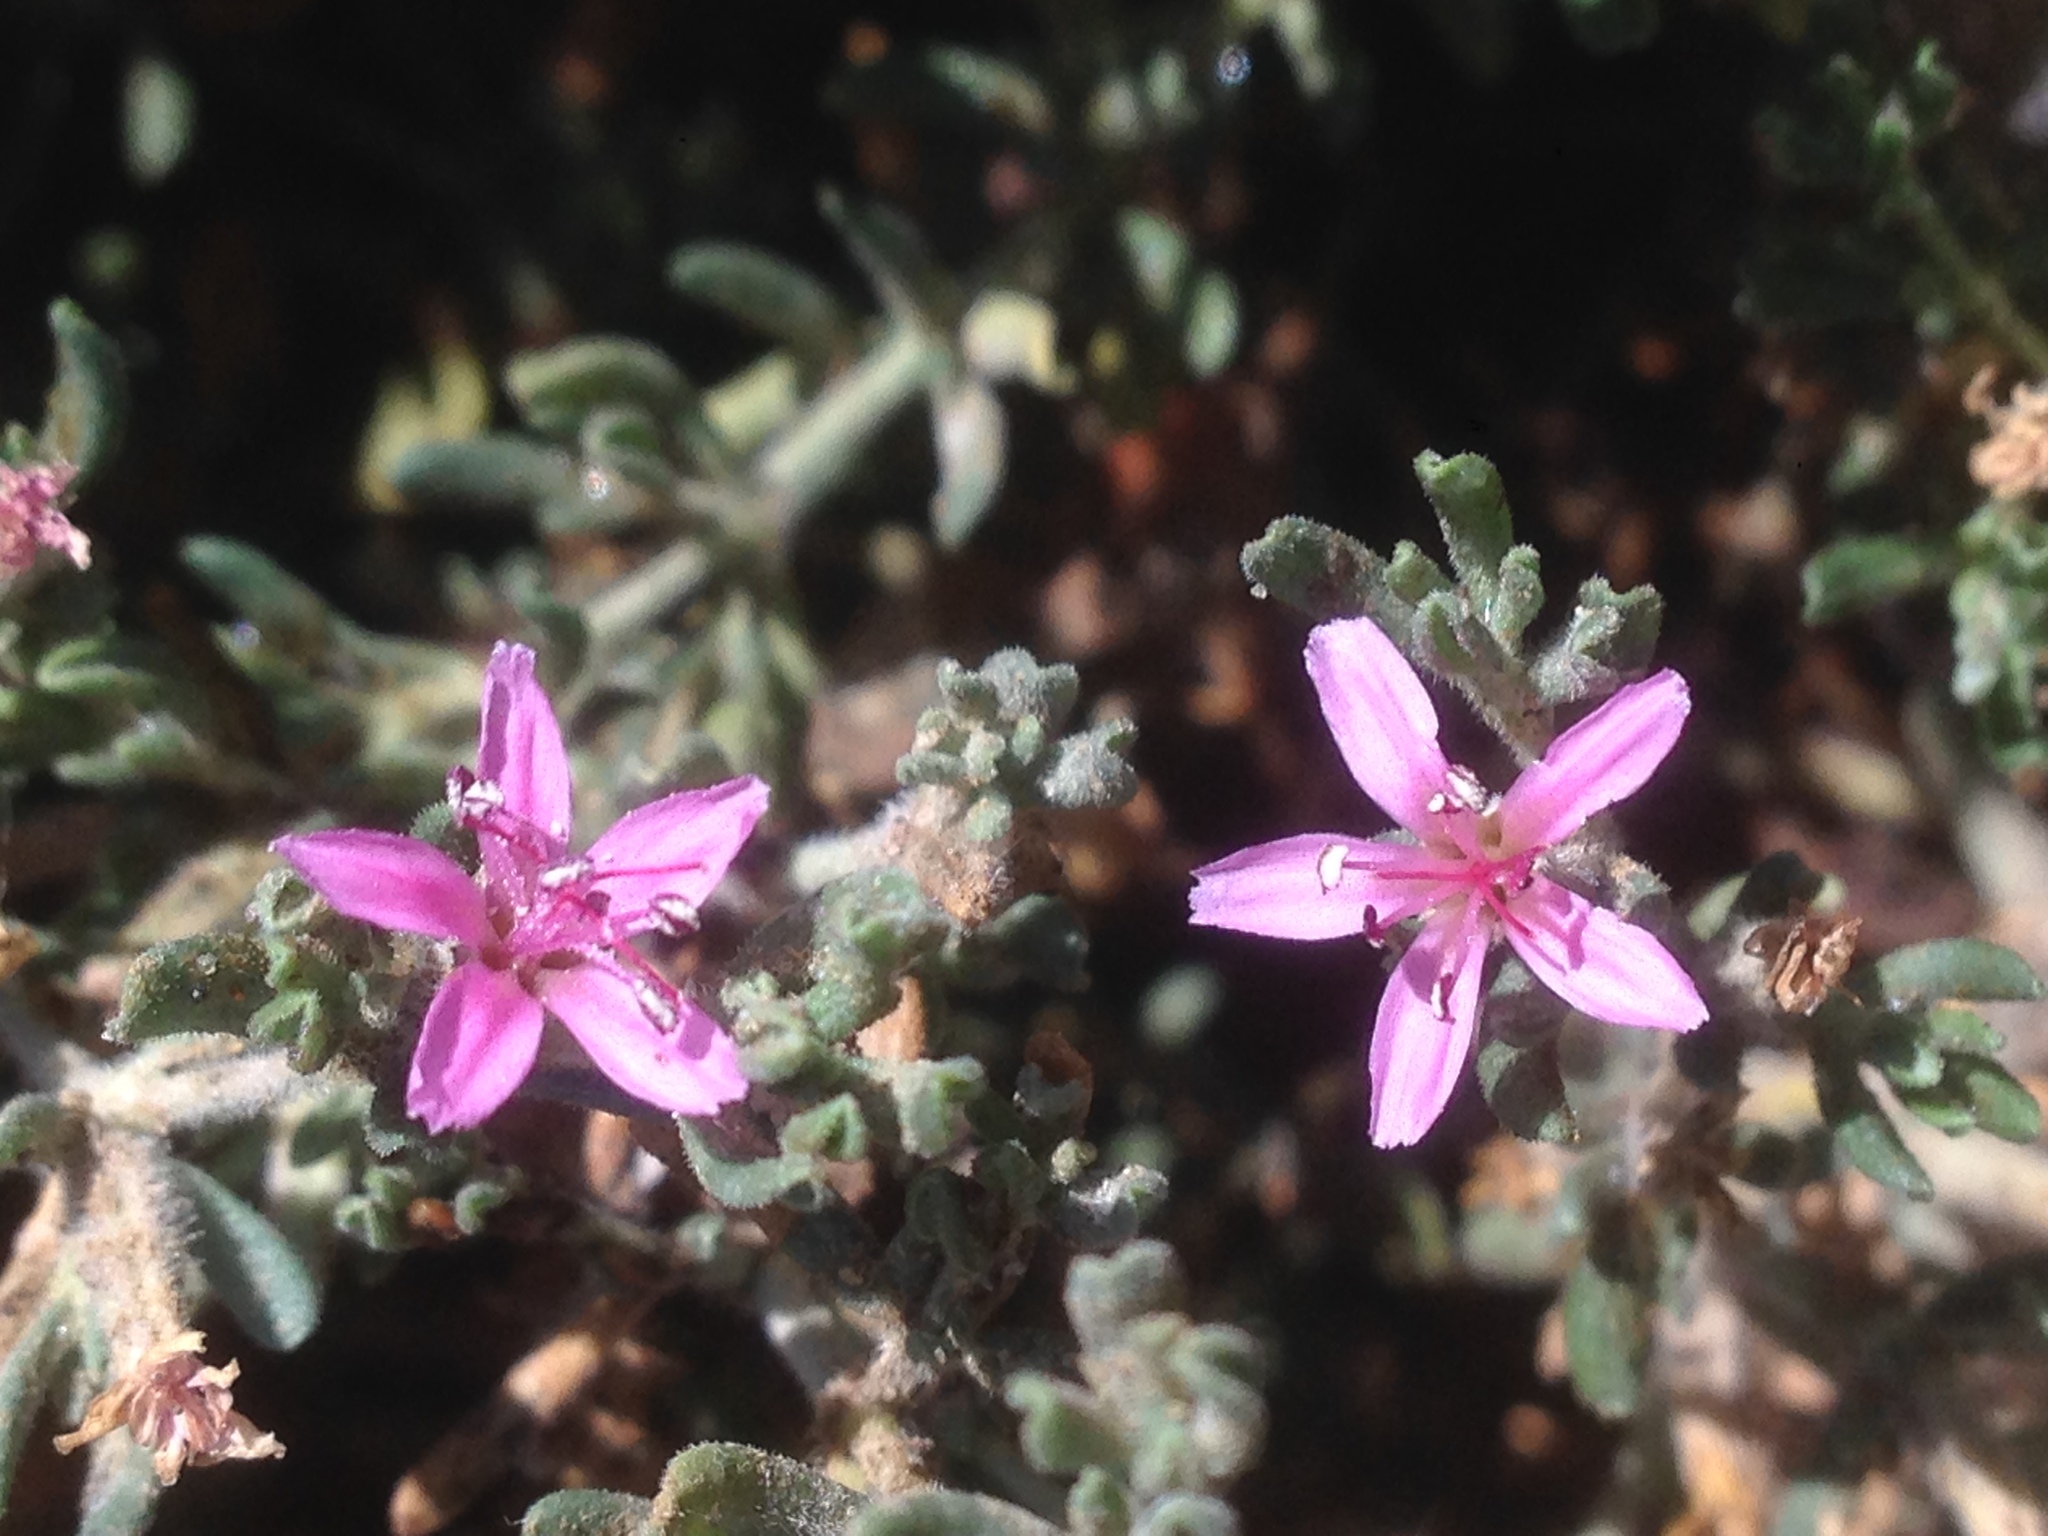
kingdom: Plantae
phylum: Tracheophyta
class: Magnoliopsida
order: Caryophyllales
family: Frankeniaceae
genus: Frankenia
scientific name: Frankenia salina
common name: Alkali seaheath
